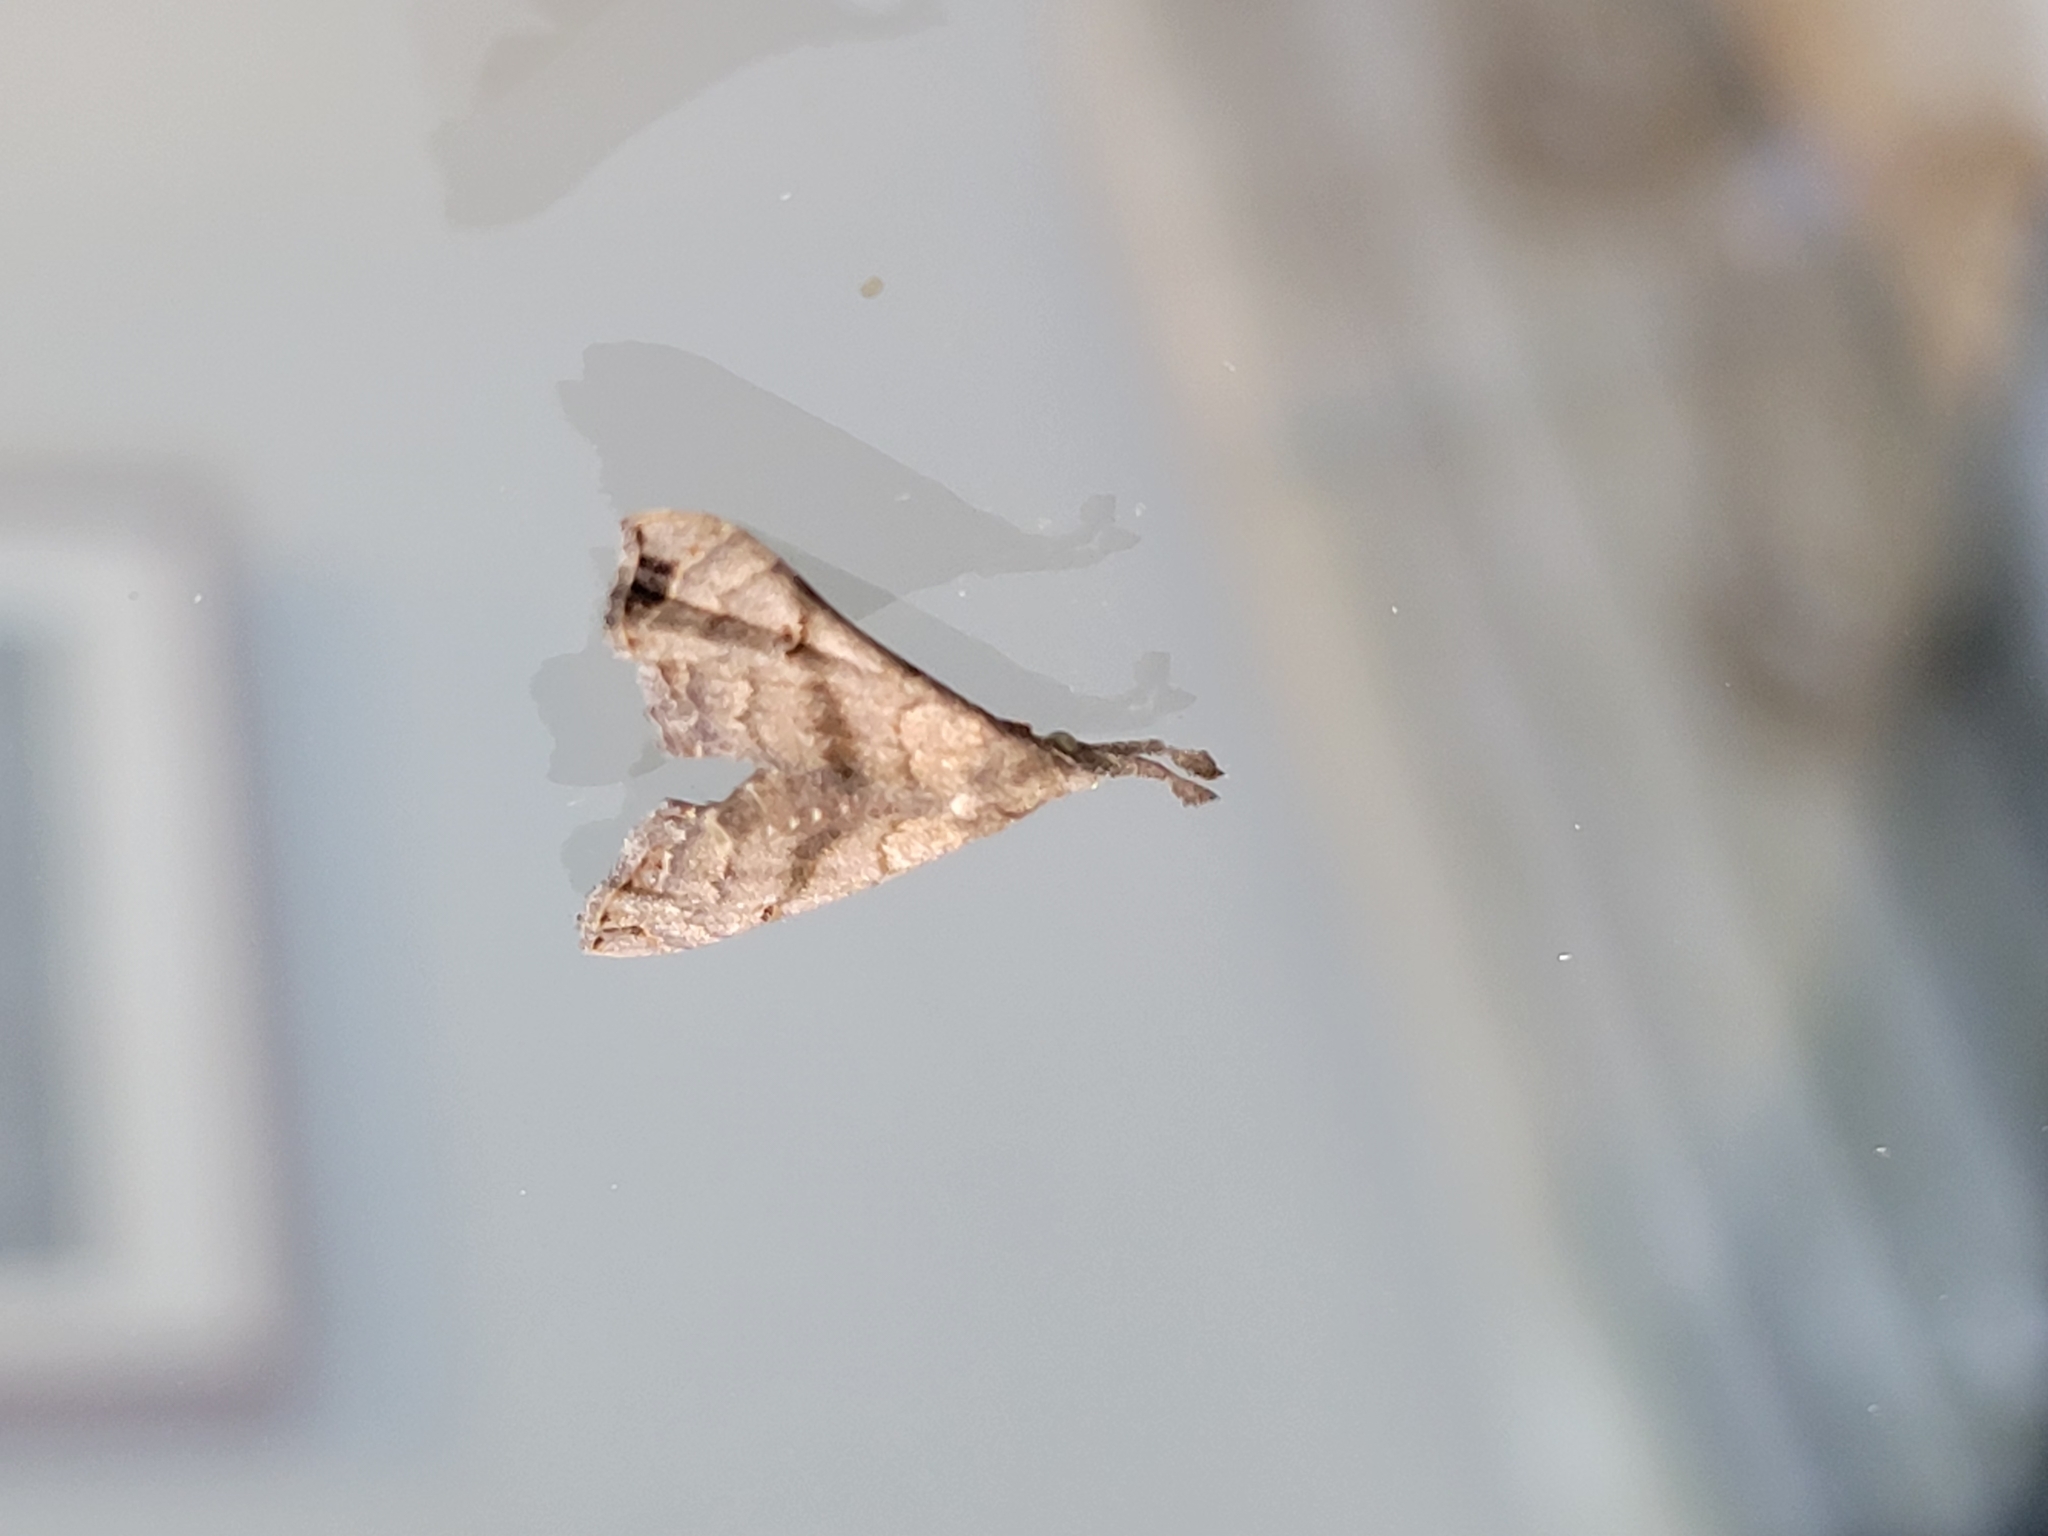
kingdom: Animalia
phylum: Arthropoda
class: Insecta
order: Lepidoptera
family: Erebidae
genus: Palthis
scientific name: Palthis asopialis
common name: Faint-spotted palthis moth
